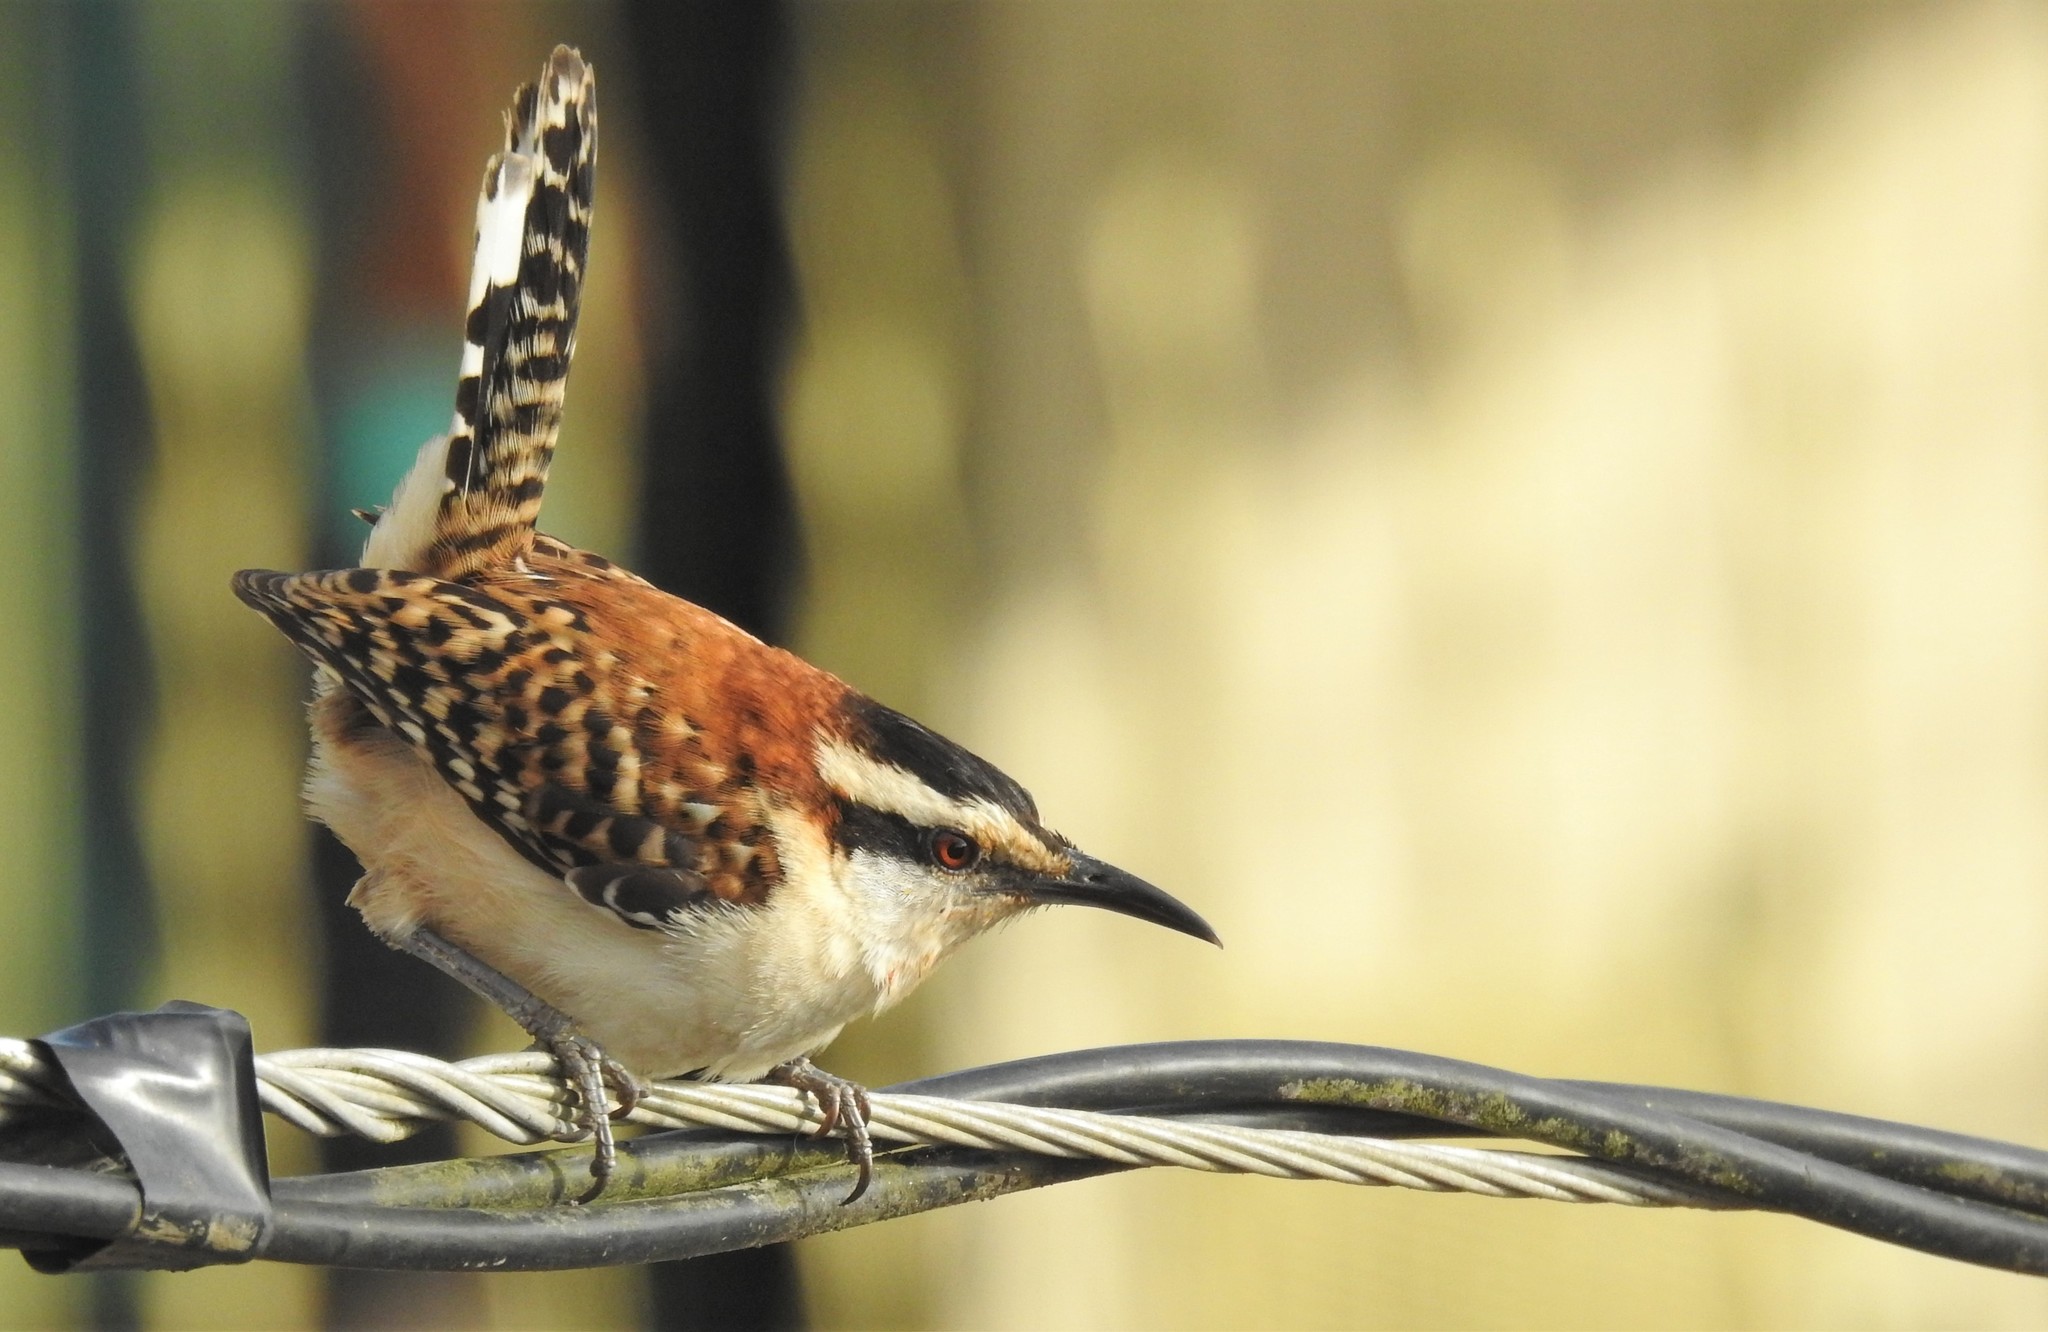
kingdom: Animalia
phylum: Chordata
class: Aves
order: Passeriformes
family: Troglodytidae
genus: Campylorhynchus
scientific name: Campylorhynchus rufinucha
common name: Rufous-naped wren
